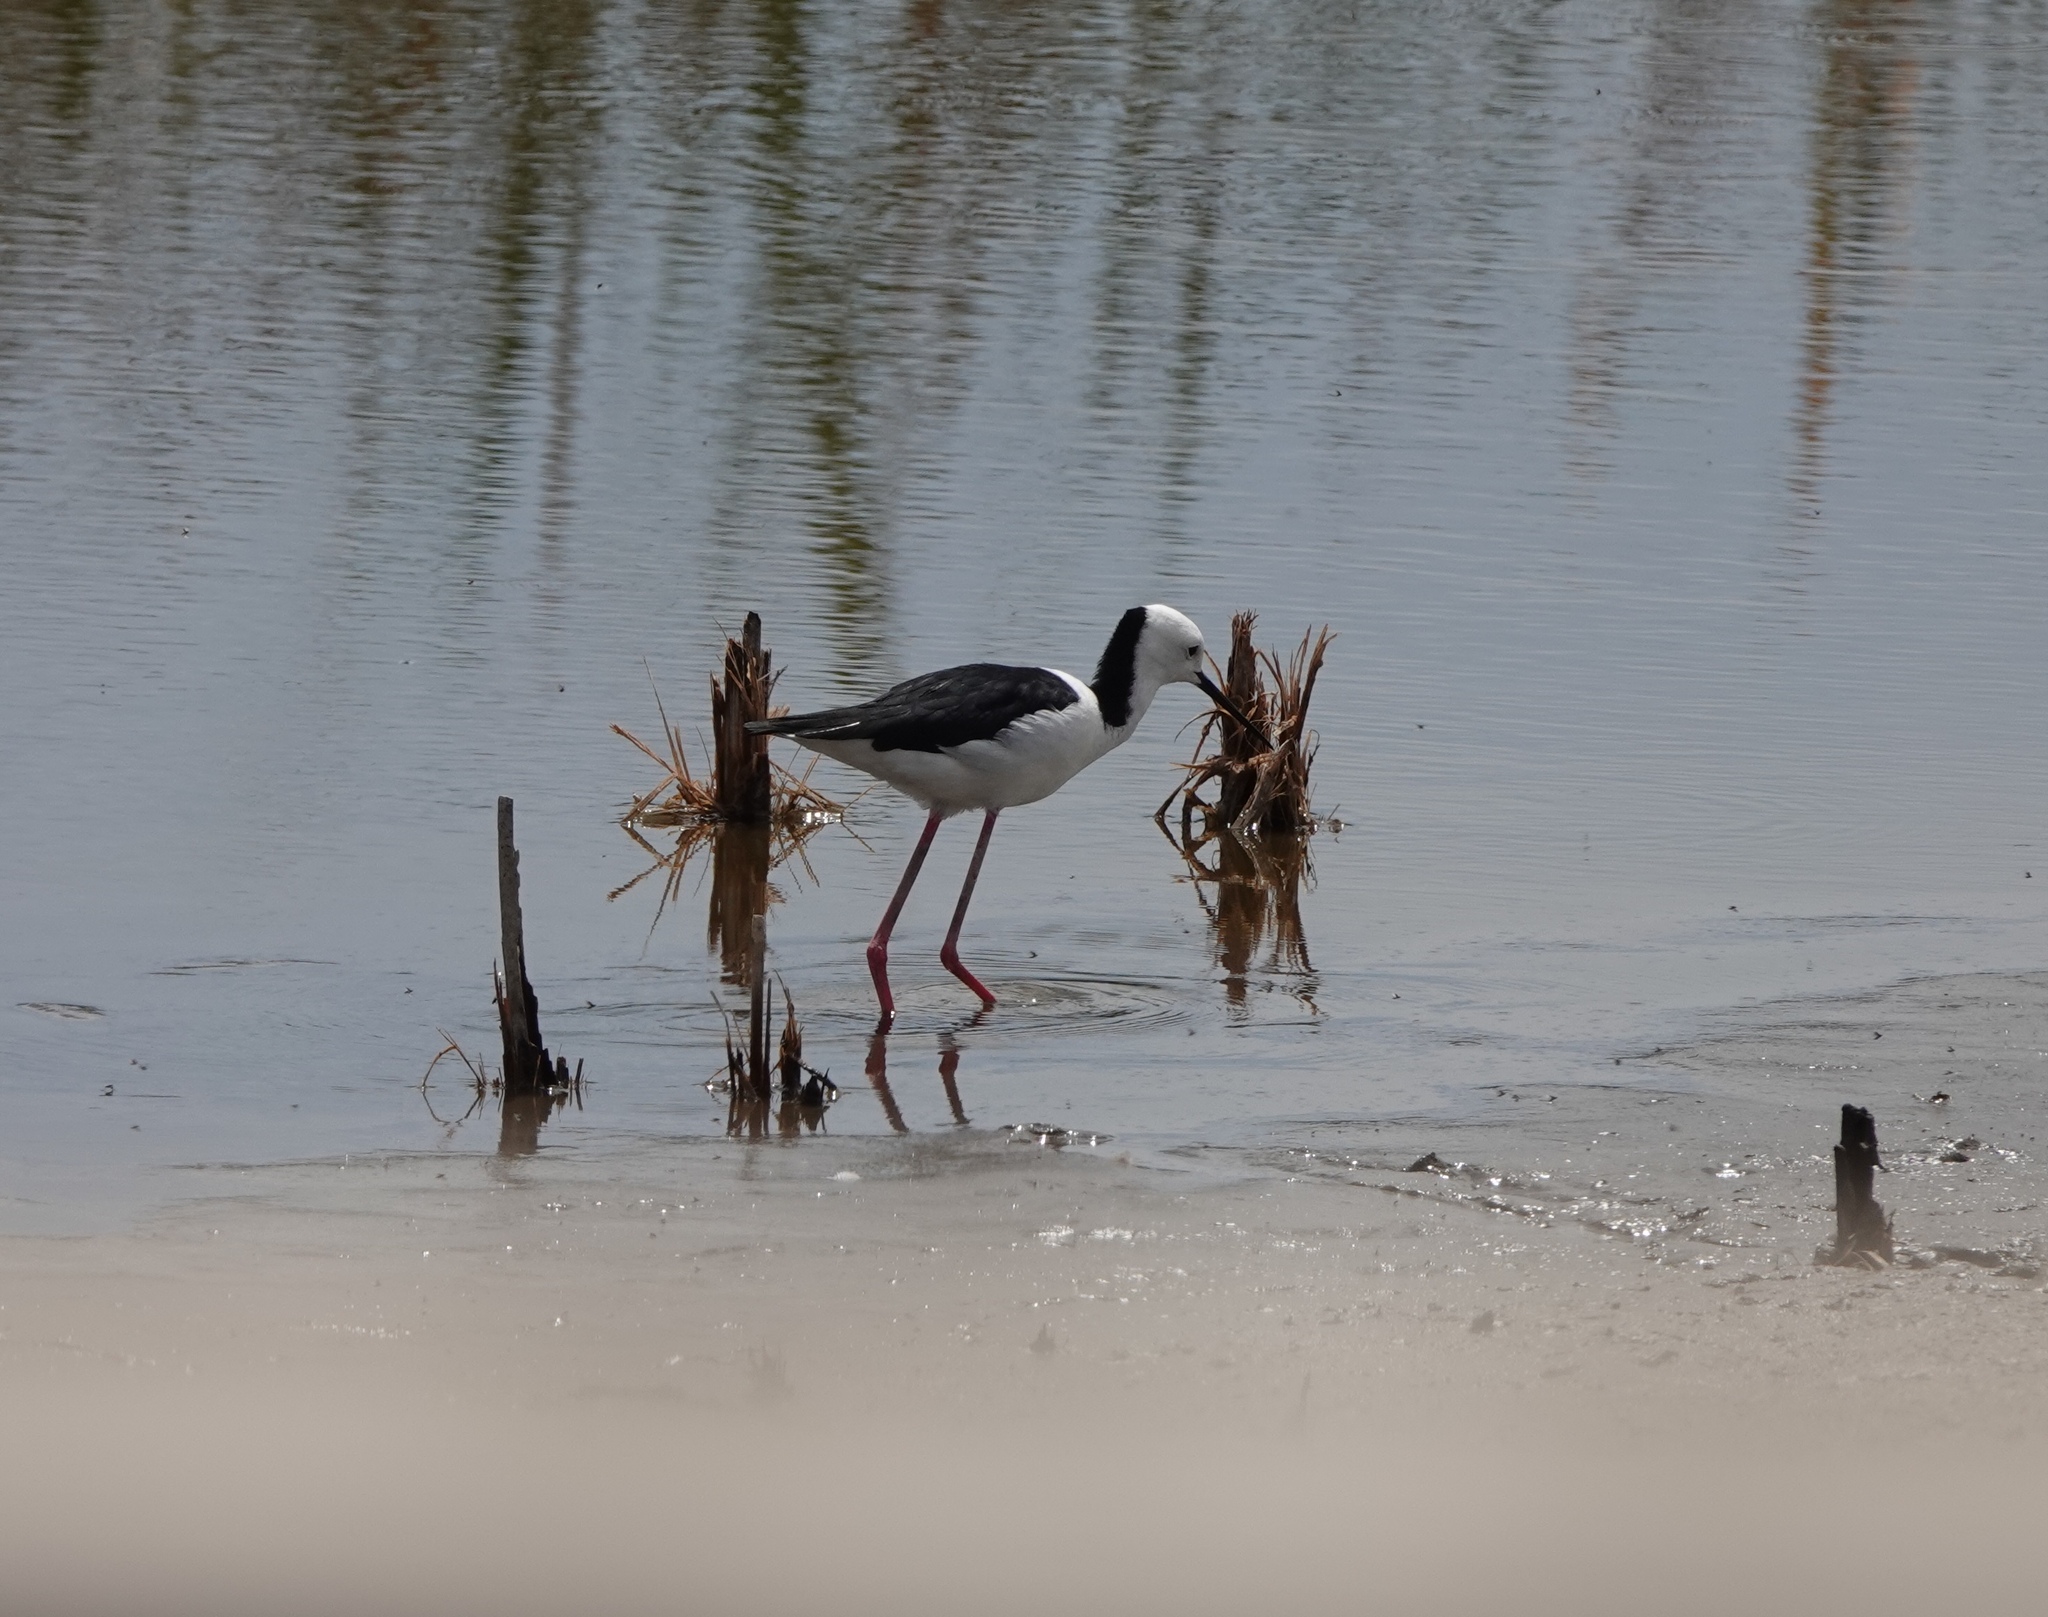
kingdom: Animalia
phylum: Chordata
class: Aves
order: Charadriiformes
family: Recurvirostridae
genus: Himantopus
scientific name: Himantopus leucocephalus
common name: White-headed stilt
